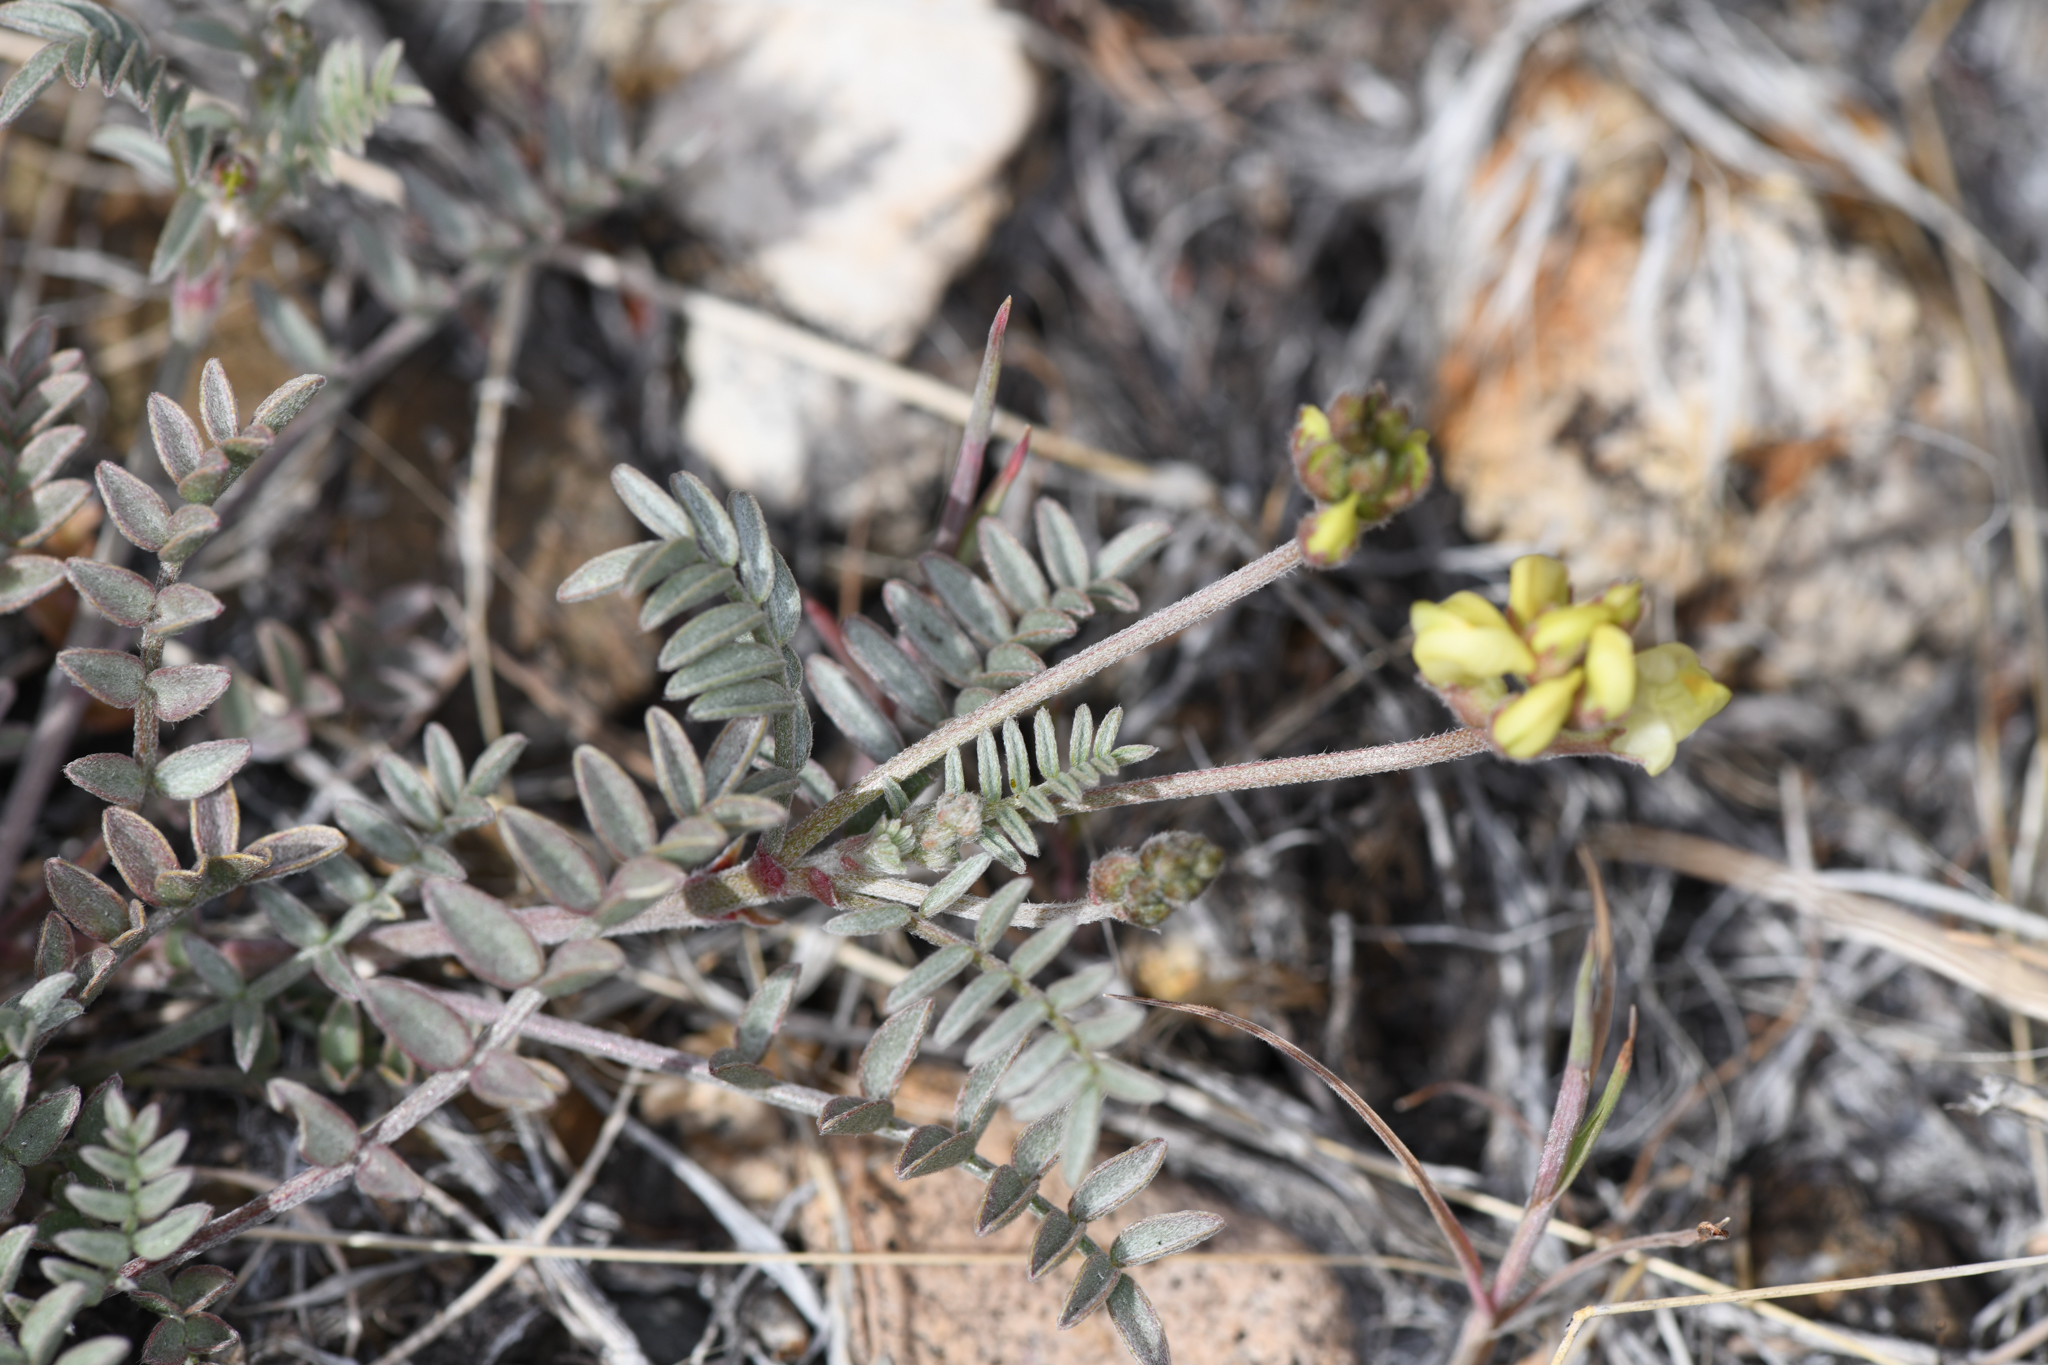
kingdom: Plantae
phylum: Tracheophyta
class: Magnoliopsida
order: Fabales
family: Fabaceae
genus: Astragalus
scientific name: Astragalus obscurus
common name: Arcane milk-vetch
